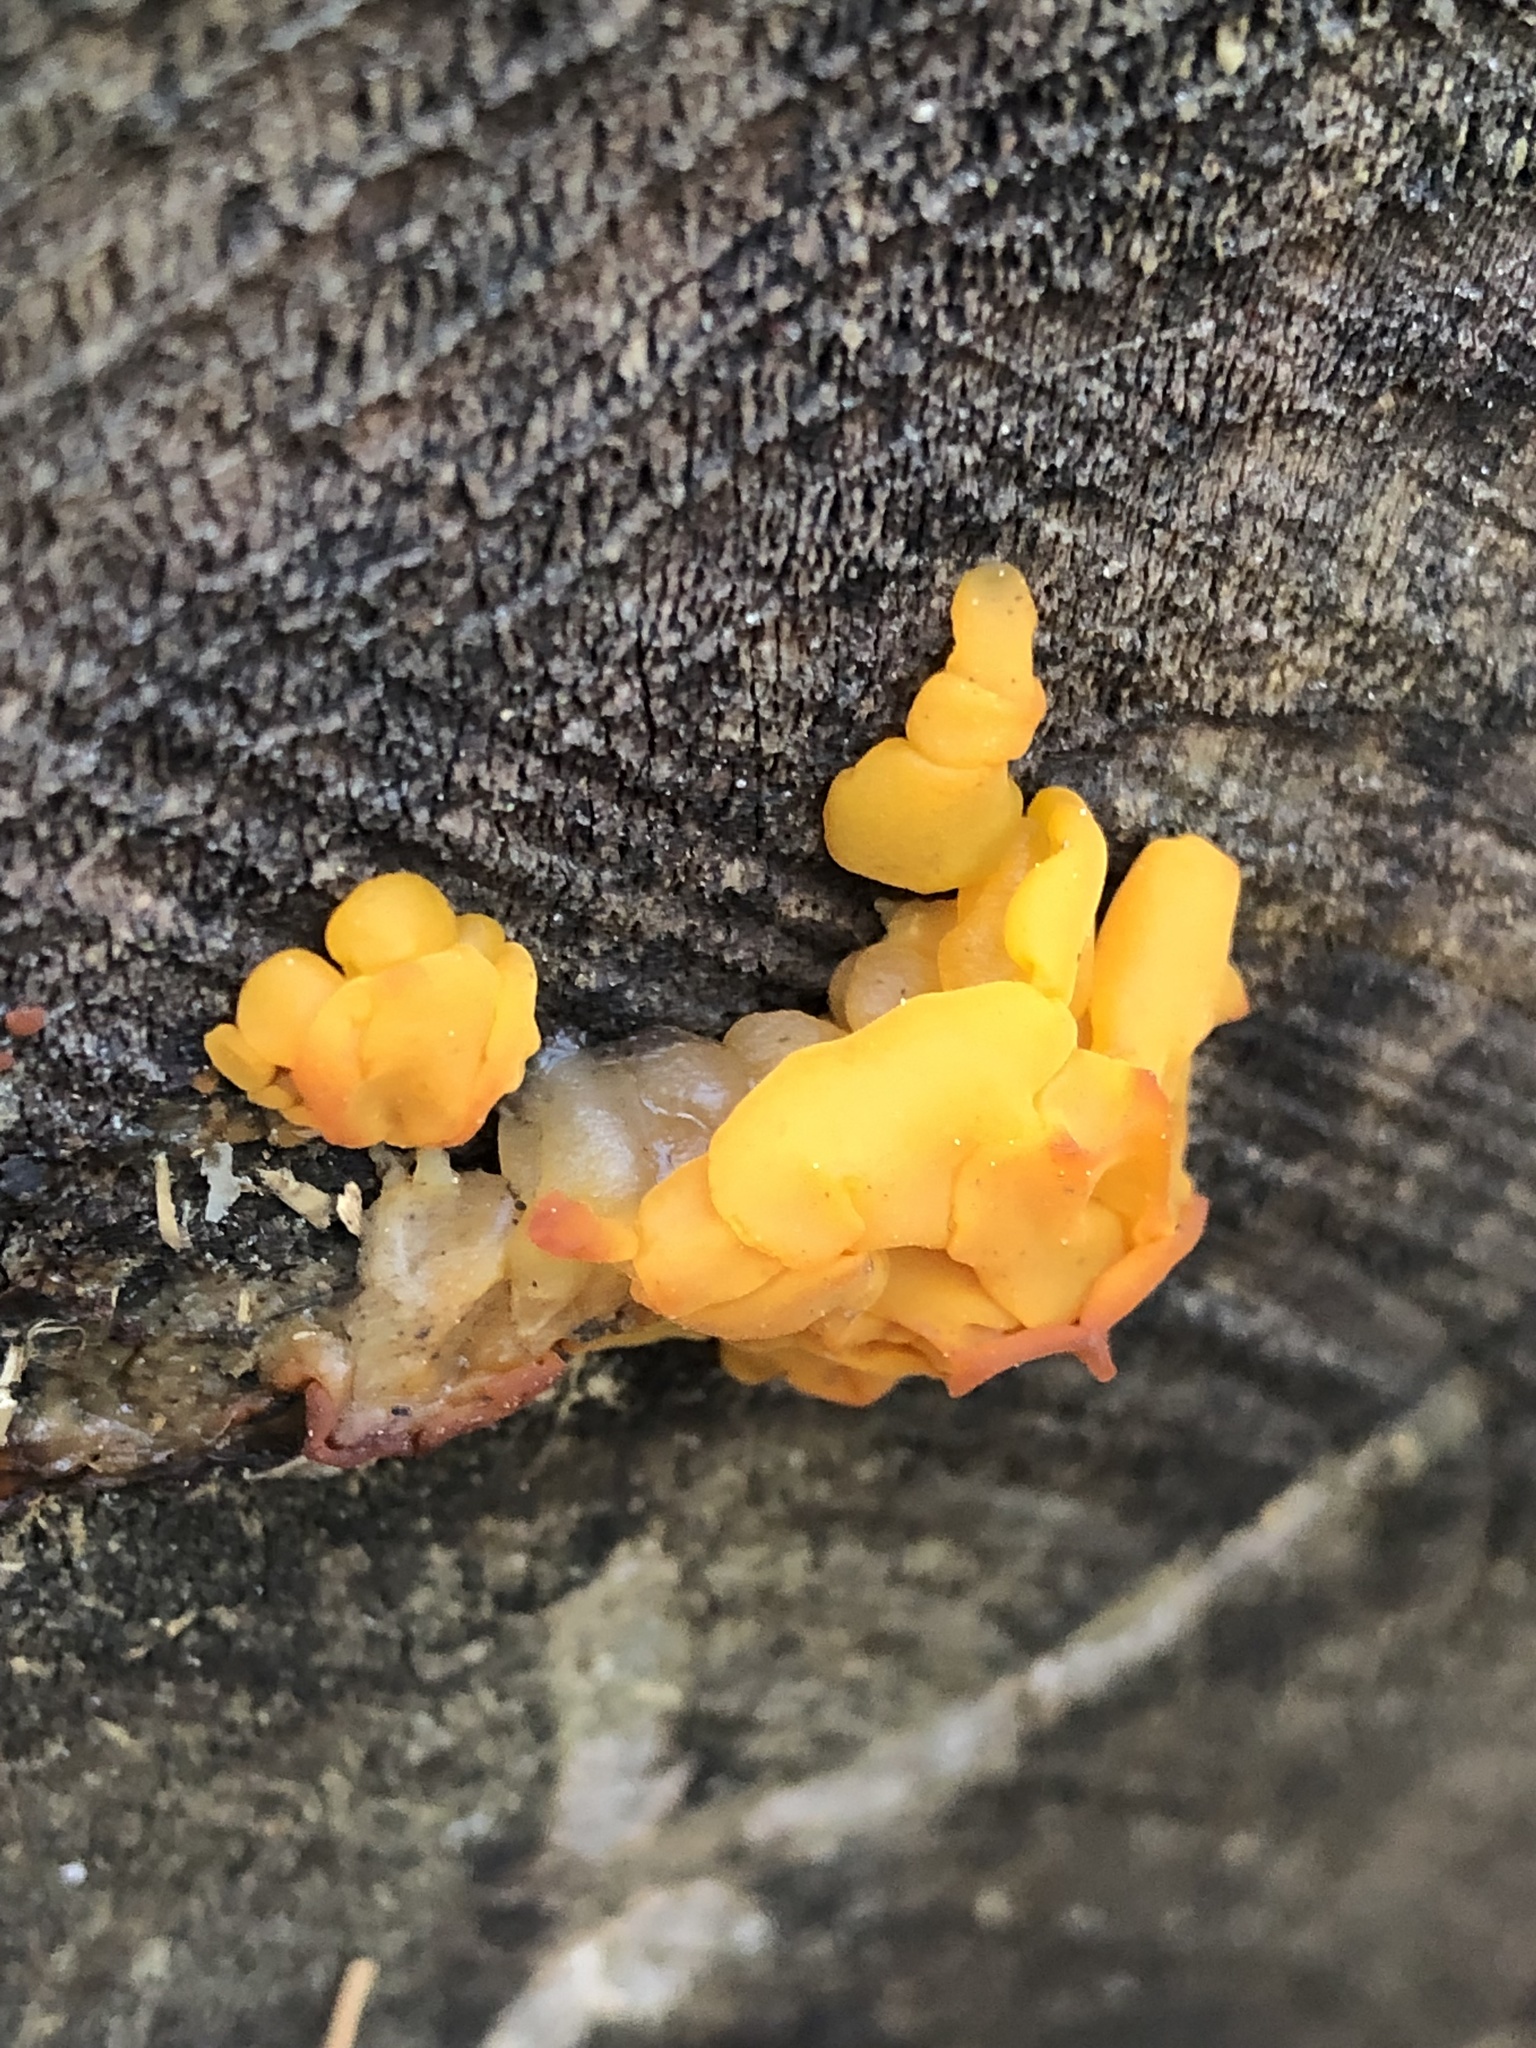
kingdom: Fungi
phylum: Basidiomycota
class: Dacrymycetes
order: Dacrymycetales
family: Dacrymycetaceae
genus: Dacrymyces
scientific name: Dacrymyces chrysospermus
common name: Orange jelly spot
